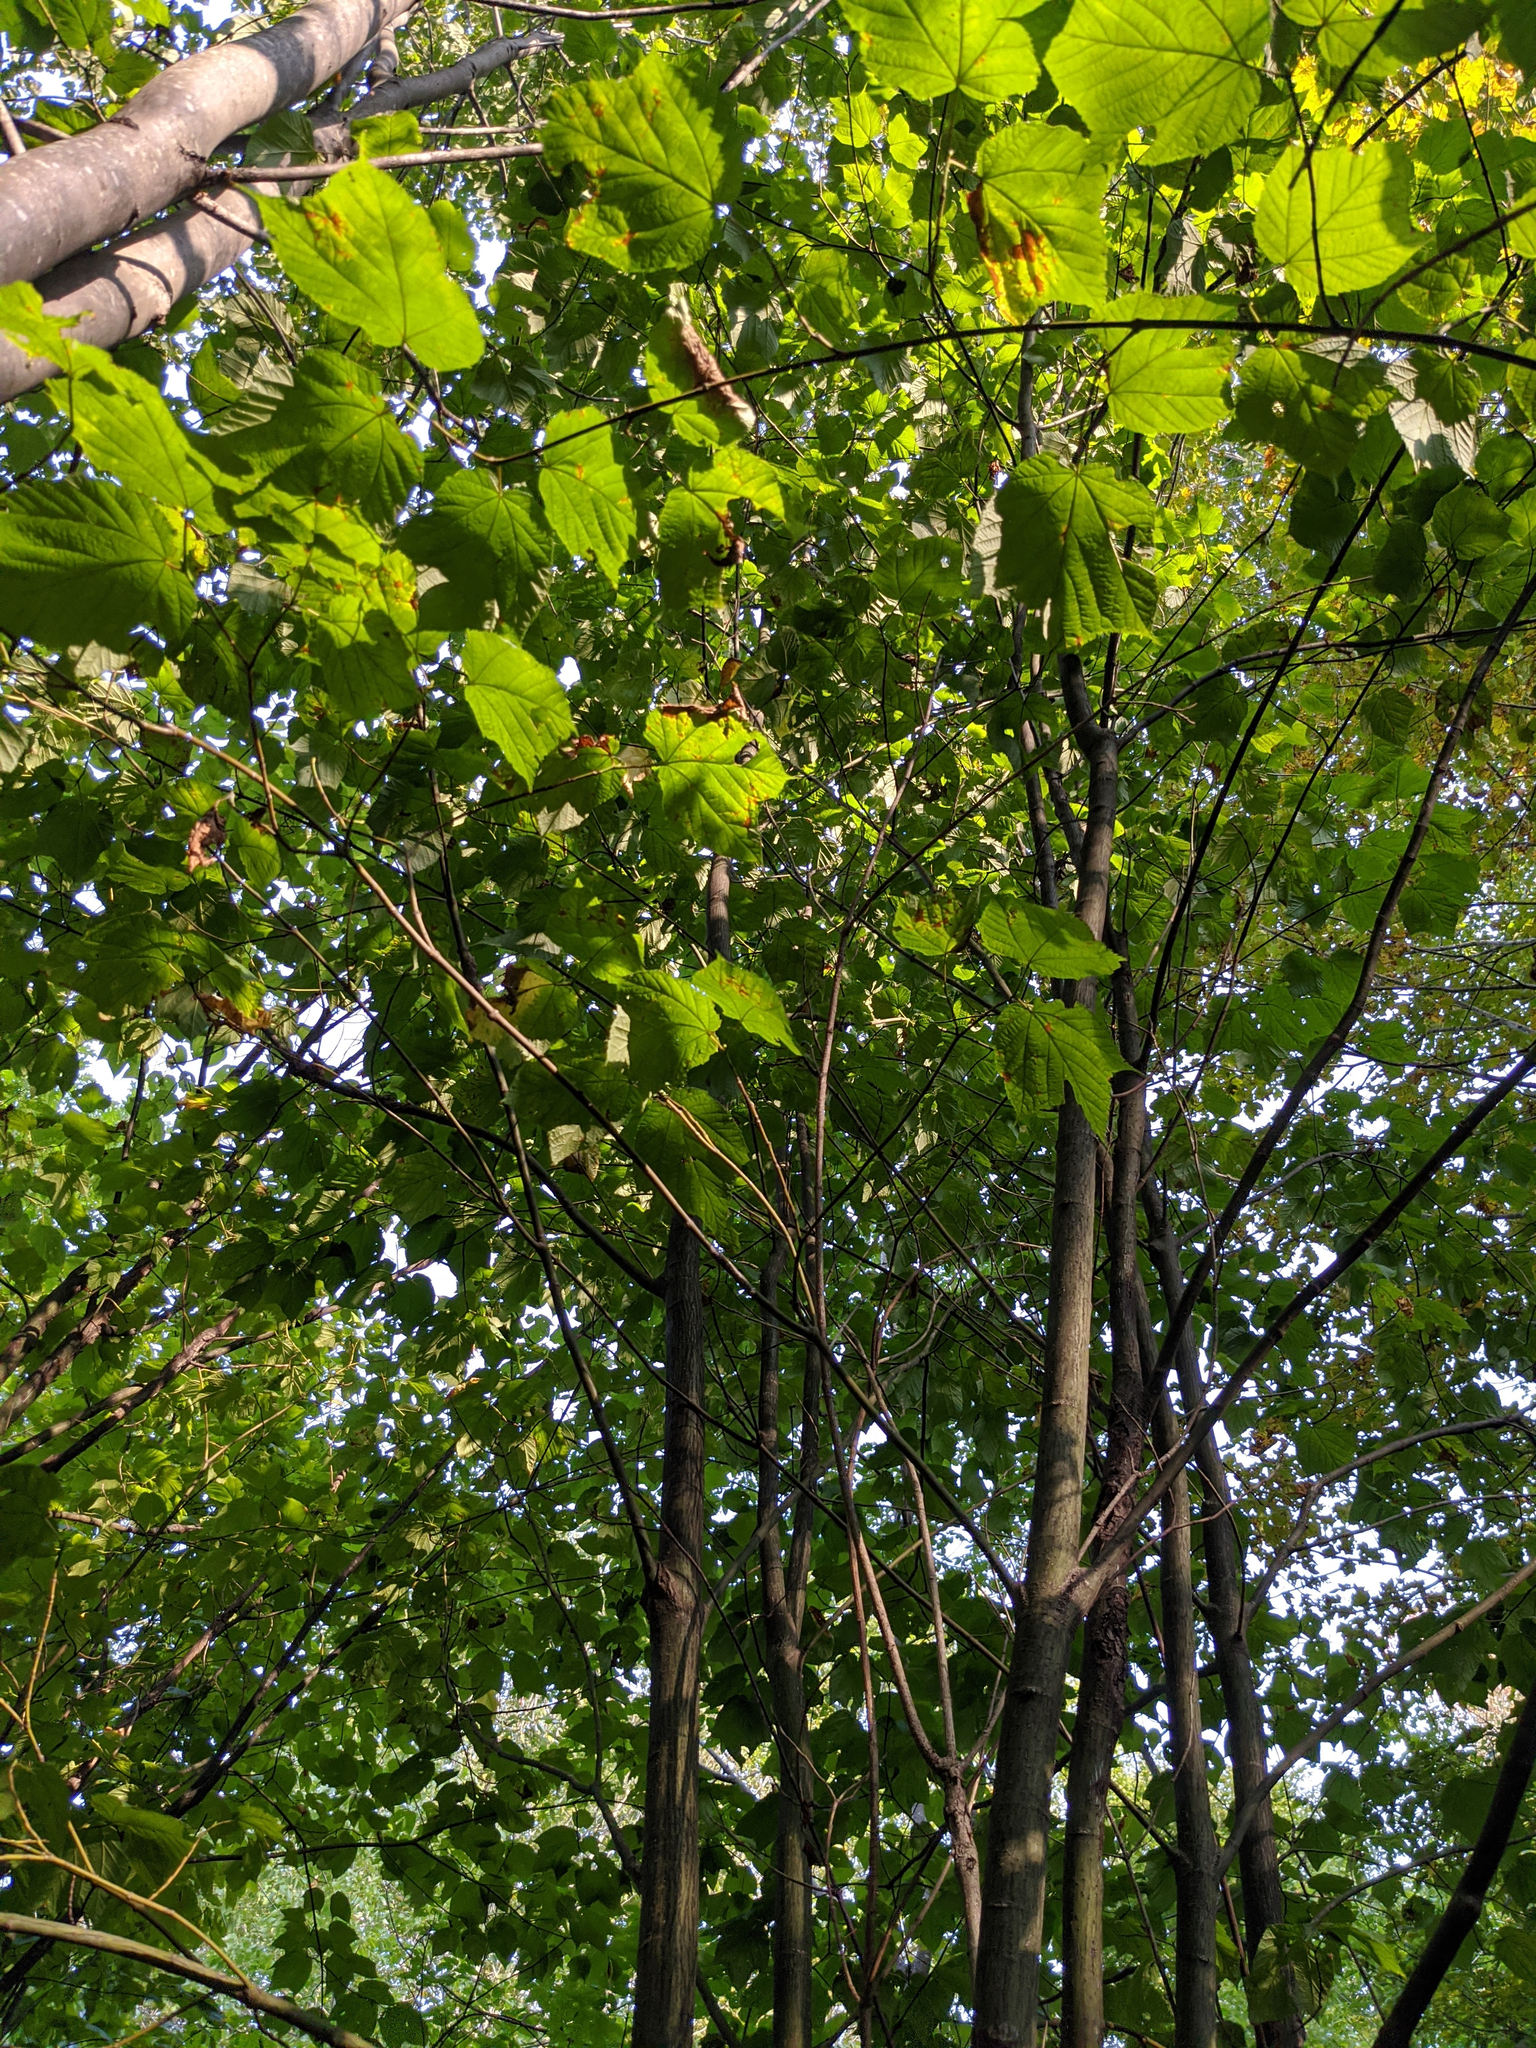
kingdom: Plantae
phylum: Tracheophyta
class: Magnoliopsida
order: Sapindales
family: Sapindaceae
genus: Acer
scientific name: Acer pensylvanicum
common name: Moosewood
